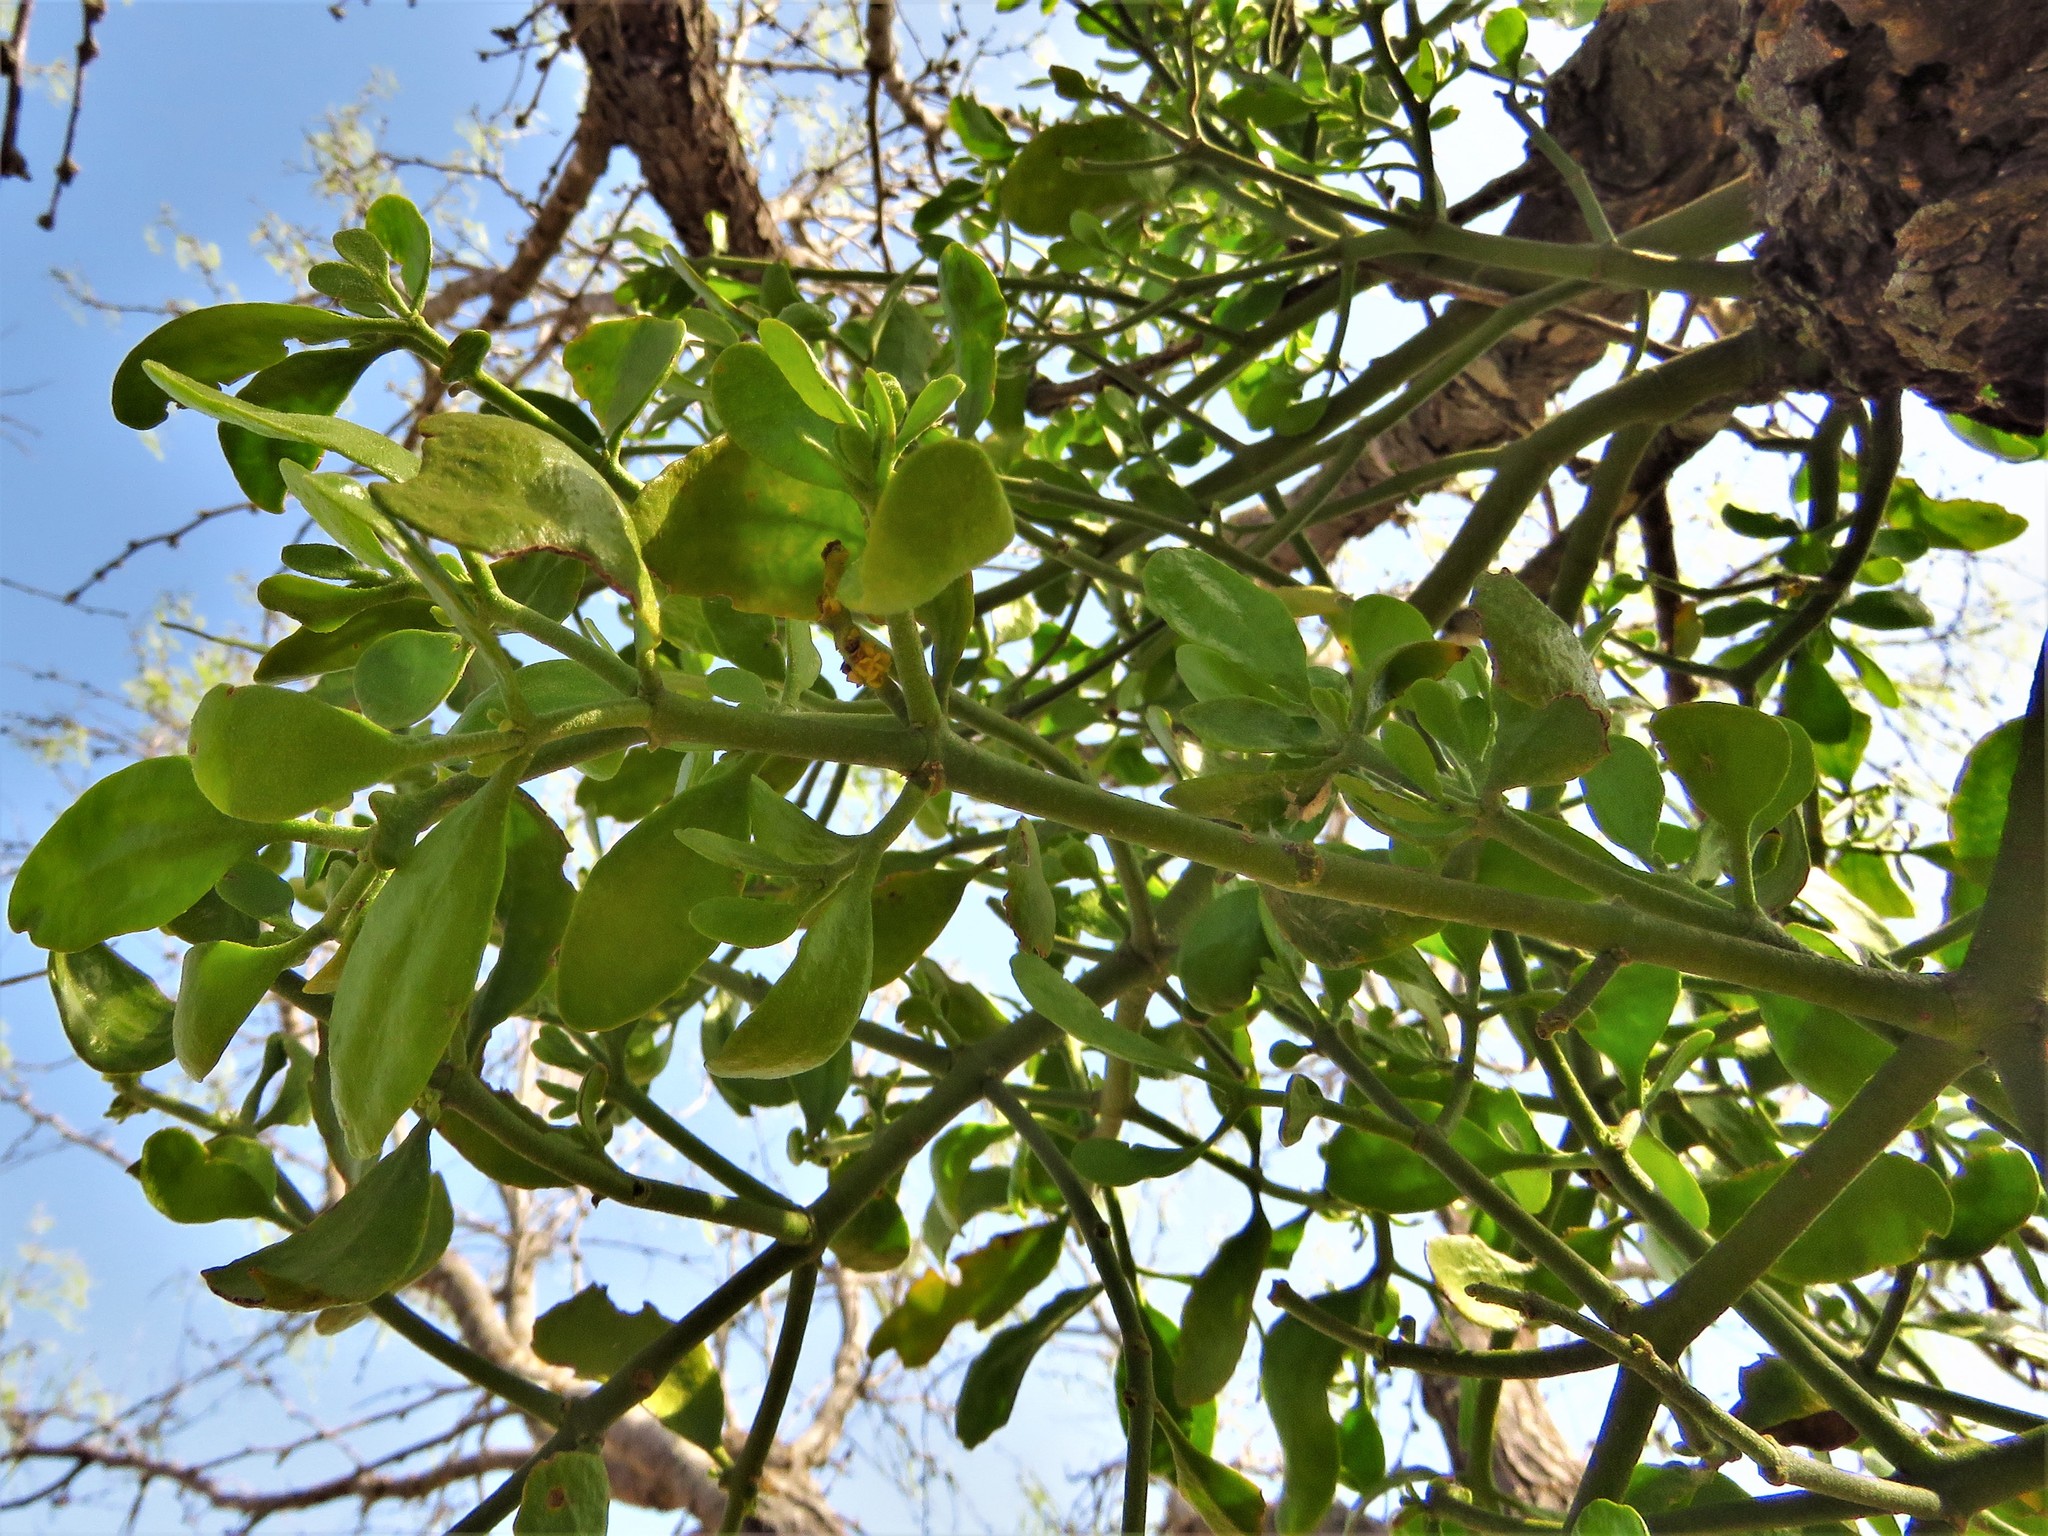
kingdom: Plantae
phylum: Tracheophyta
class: Magnoliopsida
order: Santalales
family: Viscaceae
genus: Phoradendron
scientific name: Phoradendron leucarpum
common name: Pacific mistletoe
